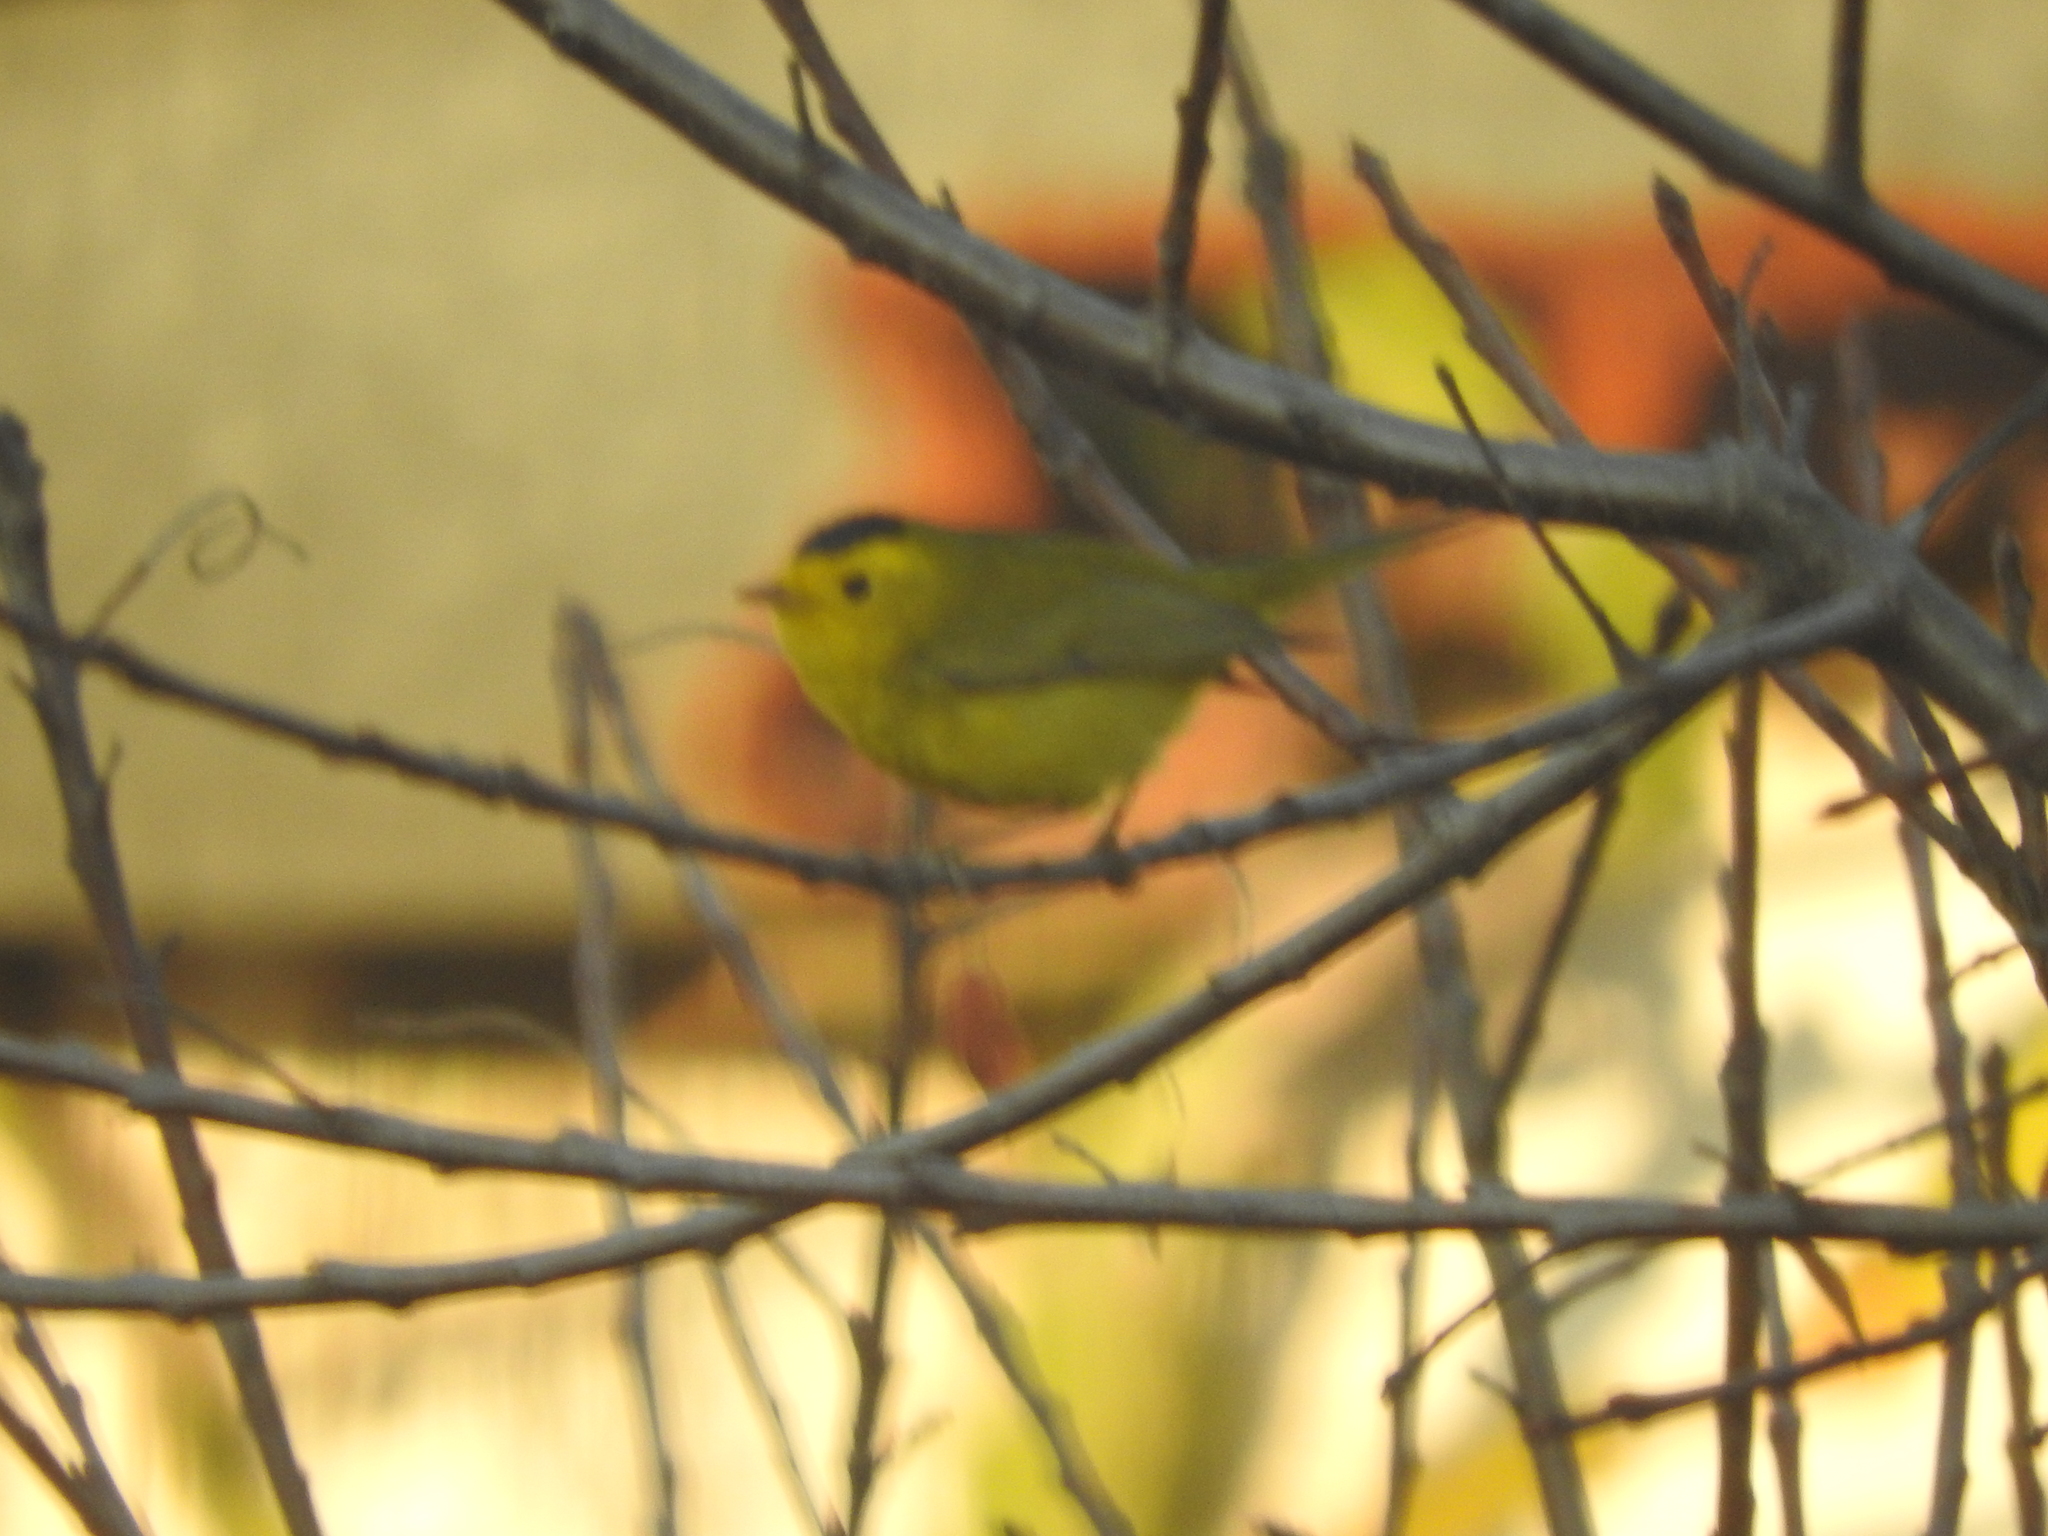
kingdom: Animalia
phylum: Chordata
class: Aves
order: Passeriformes
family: Parulidae
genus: Cardellina
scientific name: Cardellina pusilla
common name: Wilson's warbler
